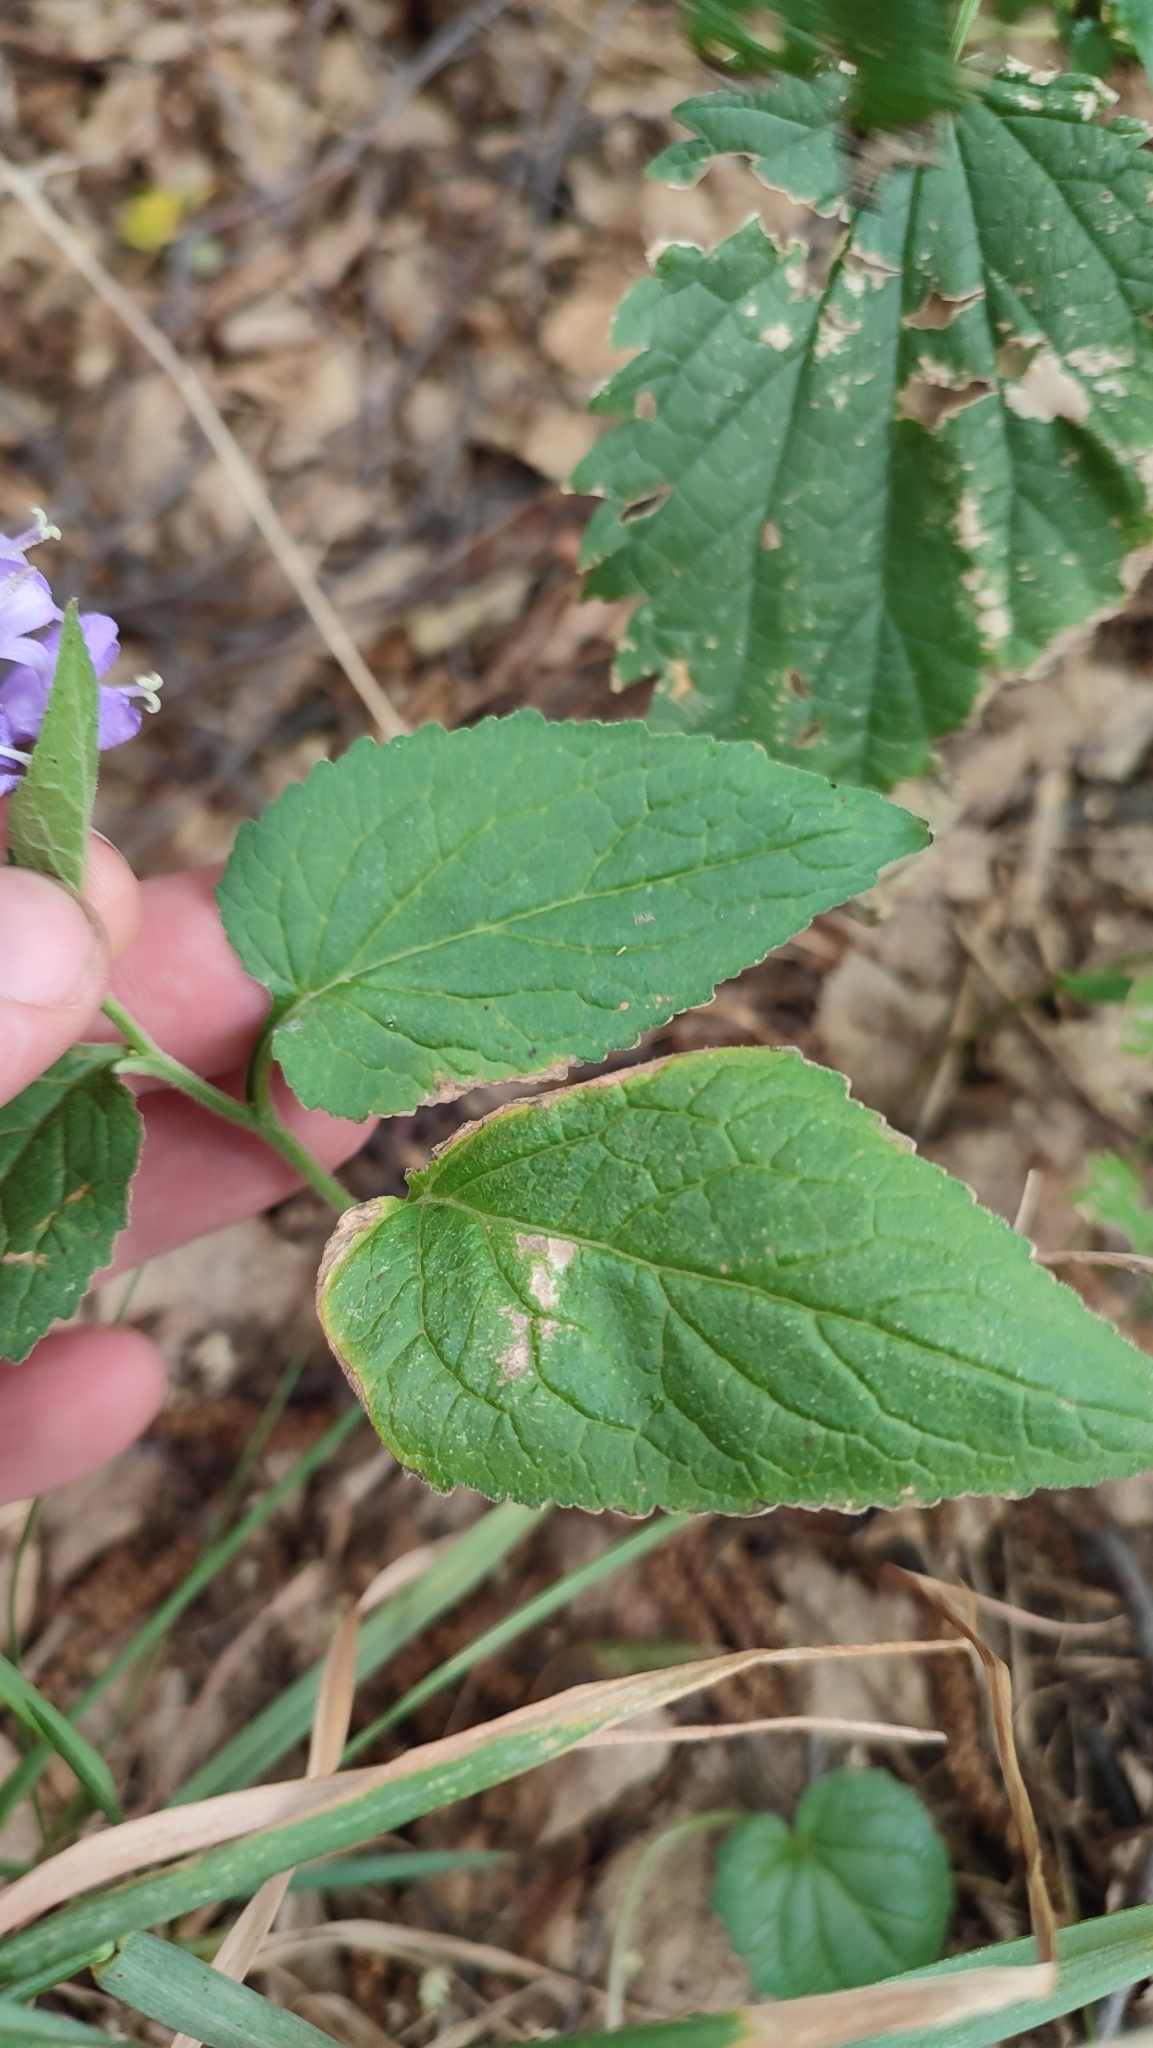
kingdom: Plantae
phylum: Tracheophyta
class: Magnoliopsida
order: Asterales
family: Campanulaceae
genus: Campanula
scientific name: Campanula rapunculoides
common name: Creeping bellflower
